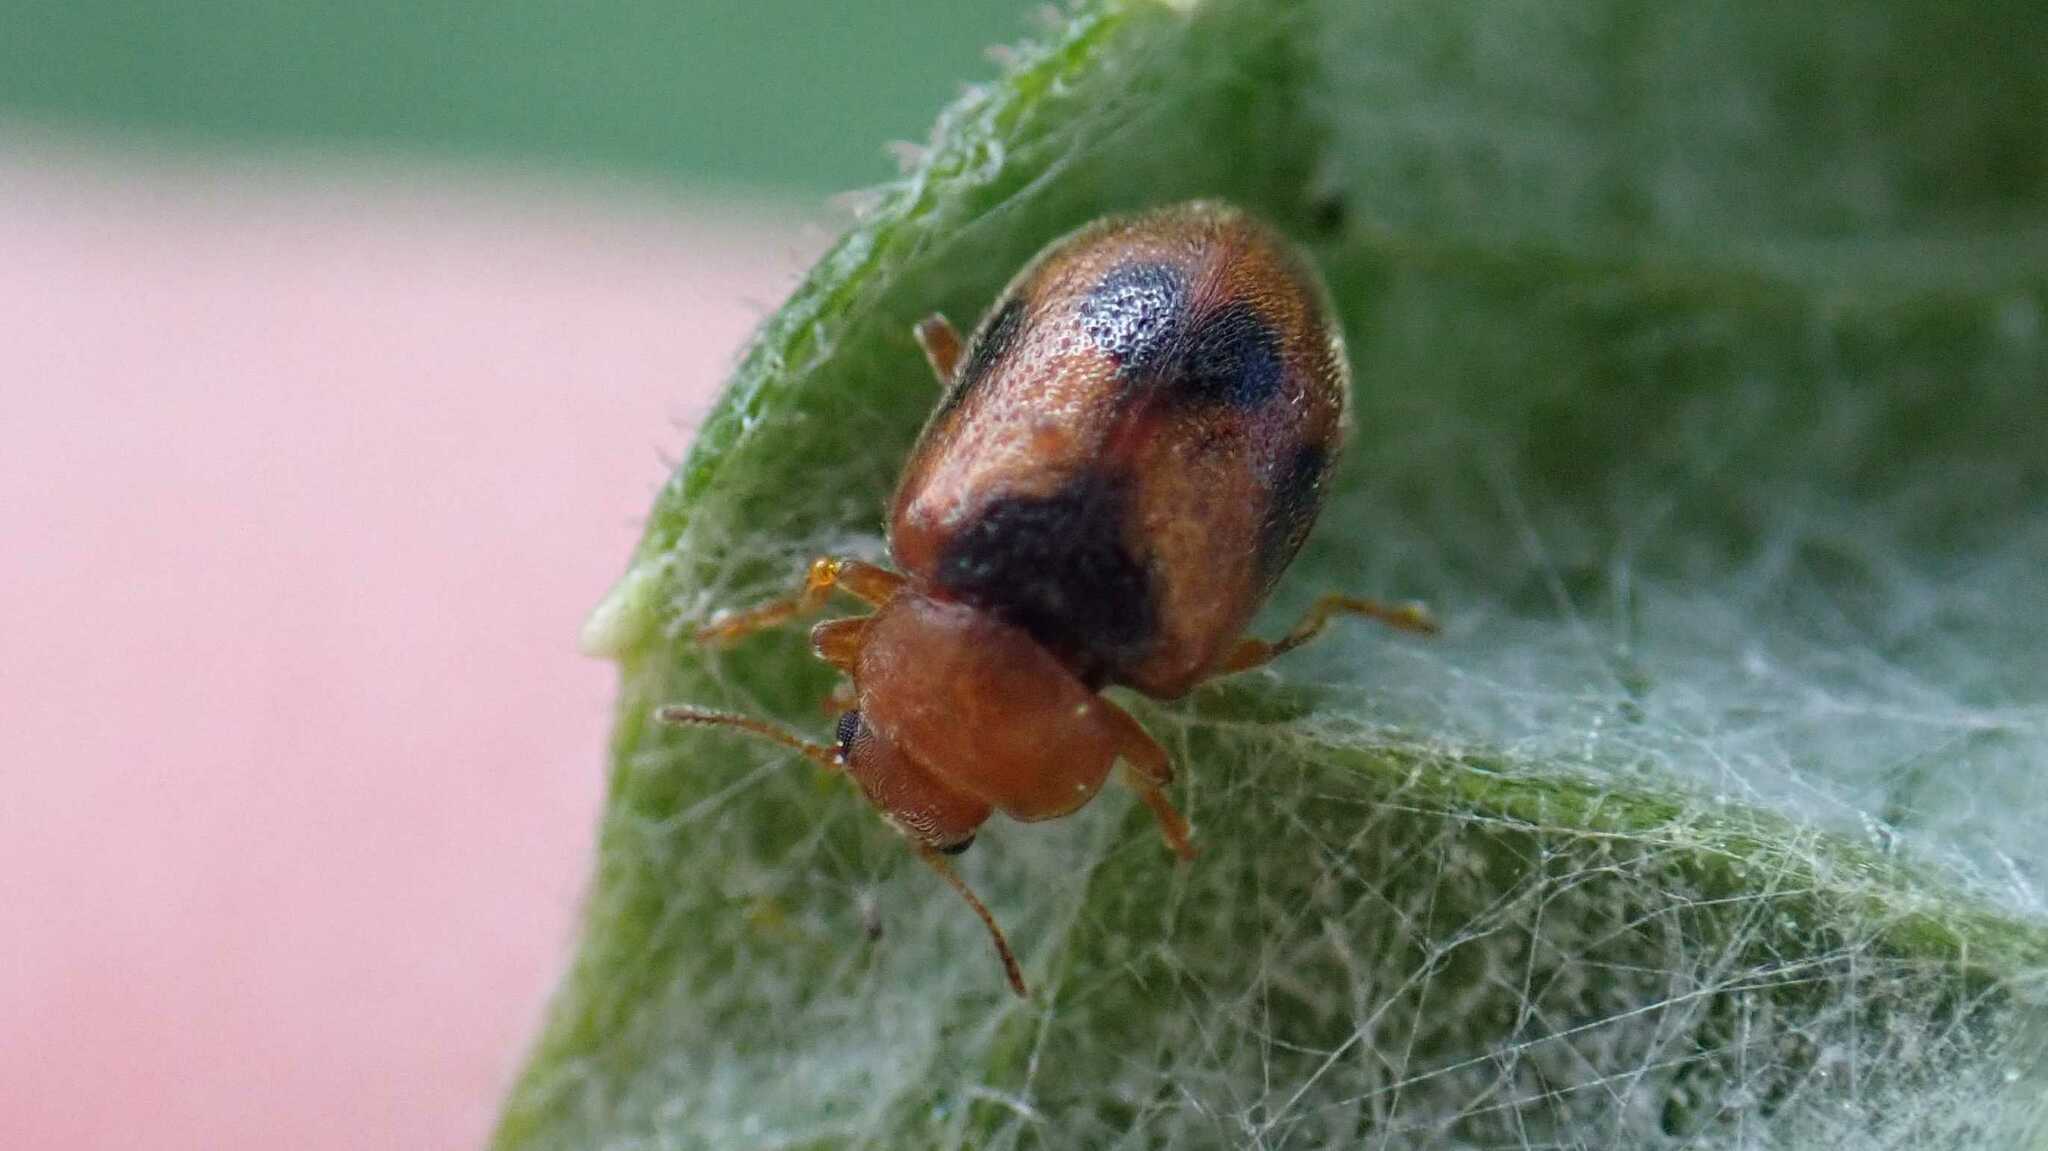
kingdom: Animalia
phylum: Arthropoda
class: Insecta
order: Coleoptera
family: Coccinellidae
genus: Coccidula
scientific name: Coccidula scutellata
